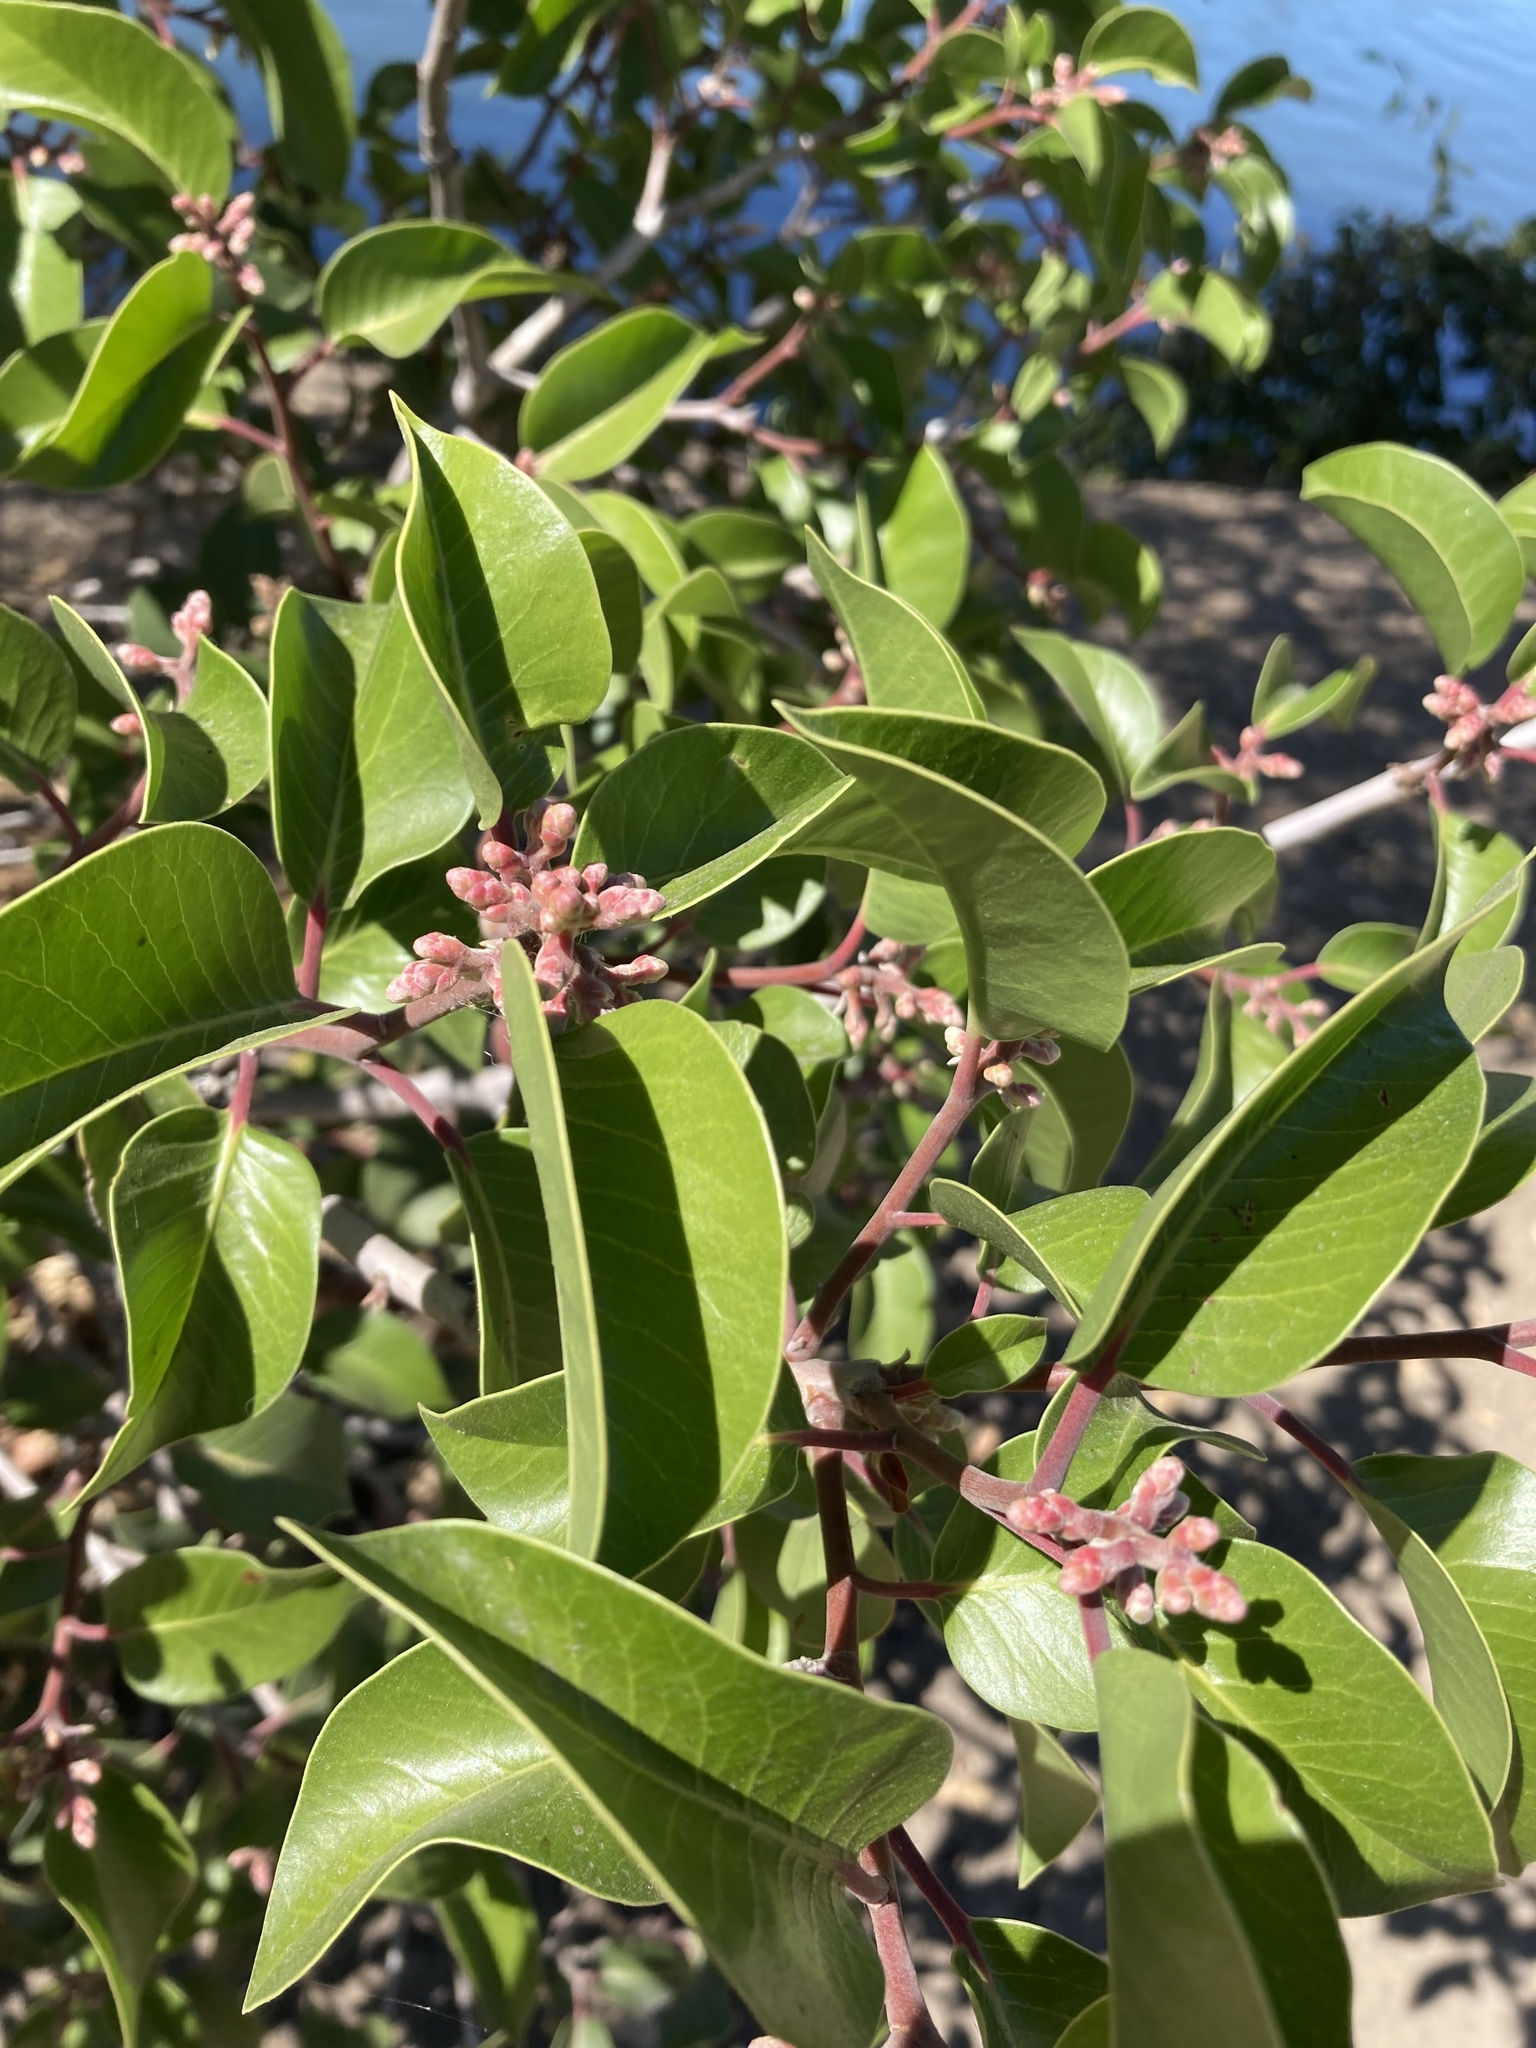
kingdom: Plantae
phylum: Tracheophyta
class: Magnoliopsida
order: Sapindales
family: Anacardiaceae
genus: Rhus
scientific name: Rhus ovata
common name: Sugar sumac
